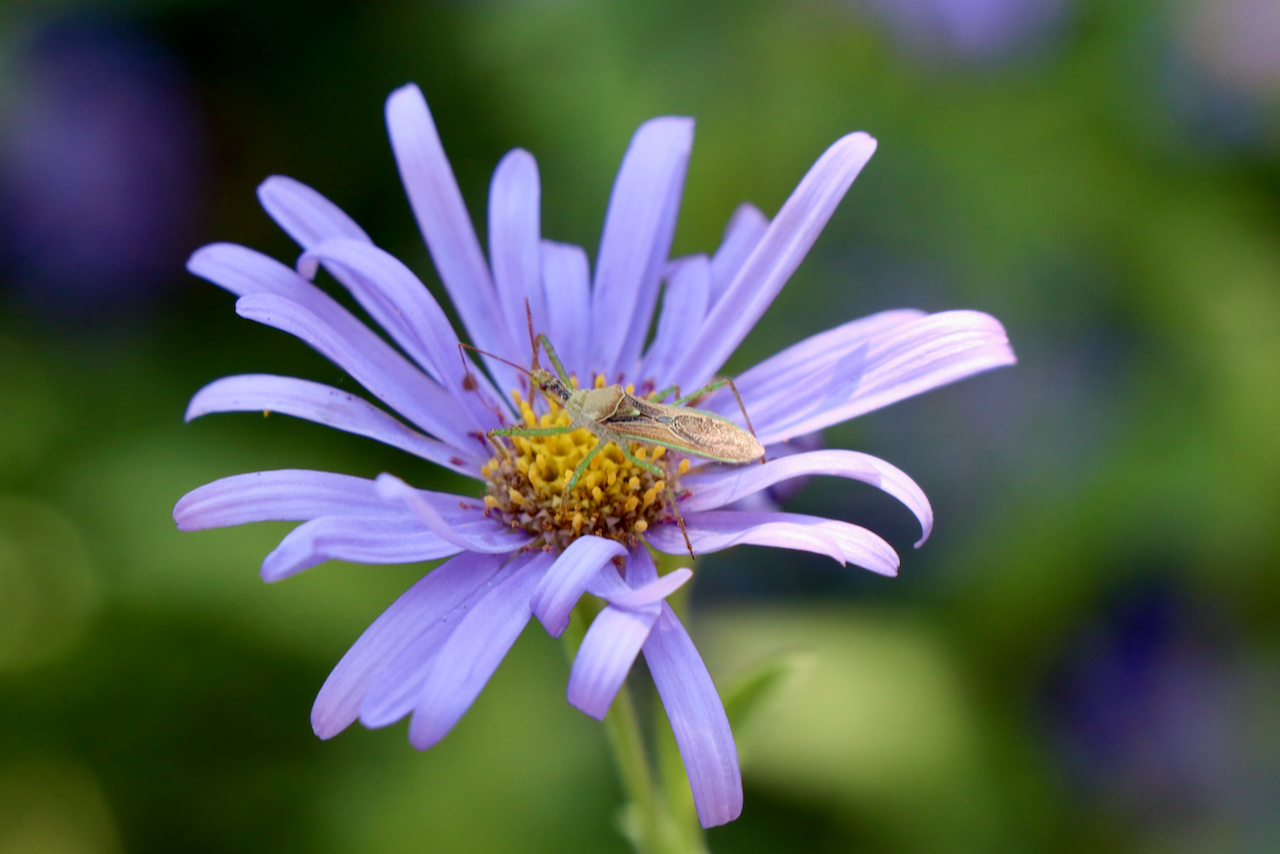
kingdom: Animalia
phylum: Arthropoda
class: Insecta
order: Hemiptera
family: Reduviidae
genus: Zelus
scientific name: Zelus renardii
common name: Assassin bug
